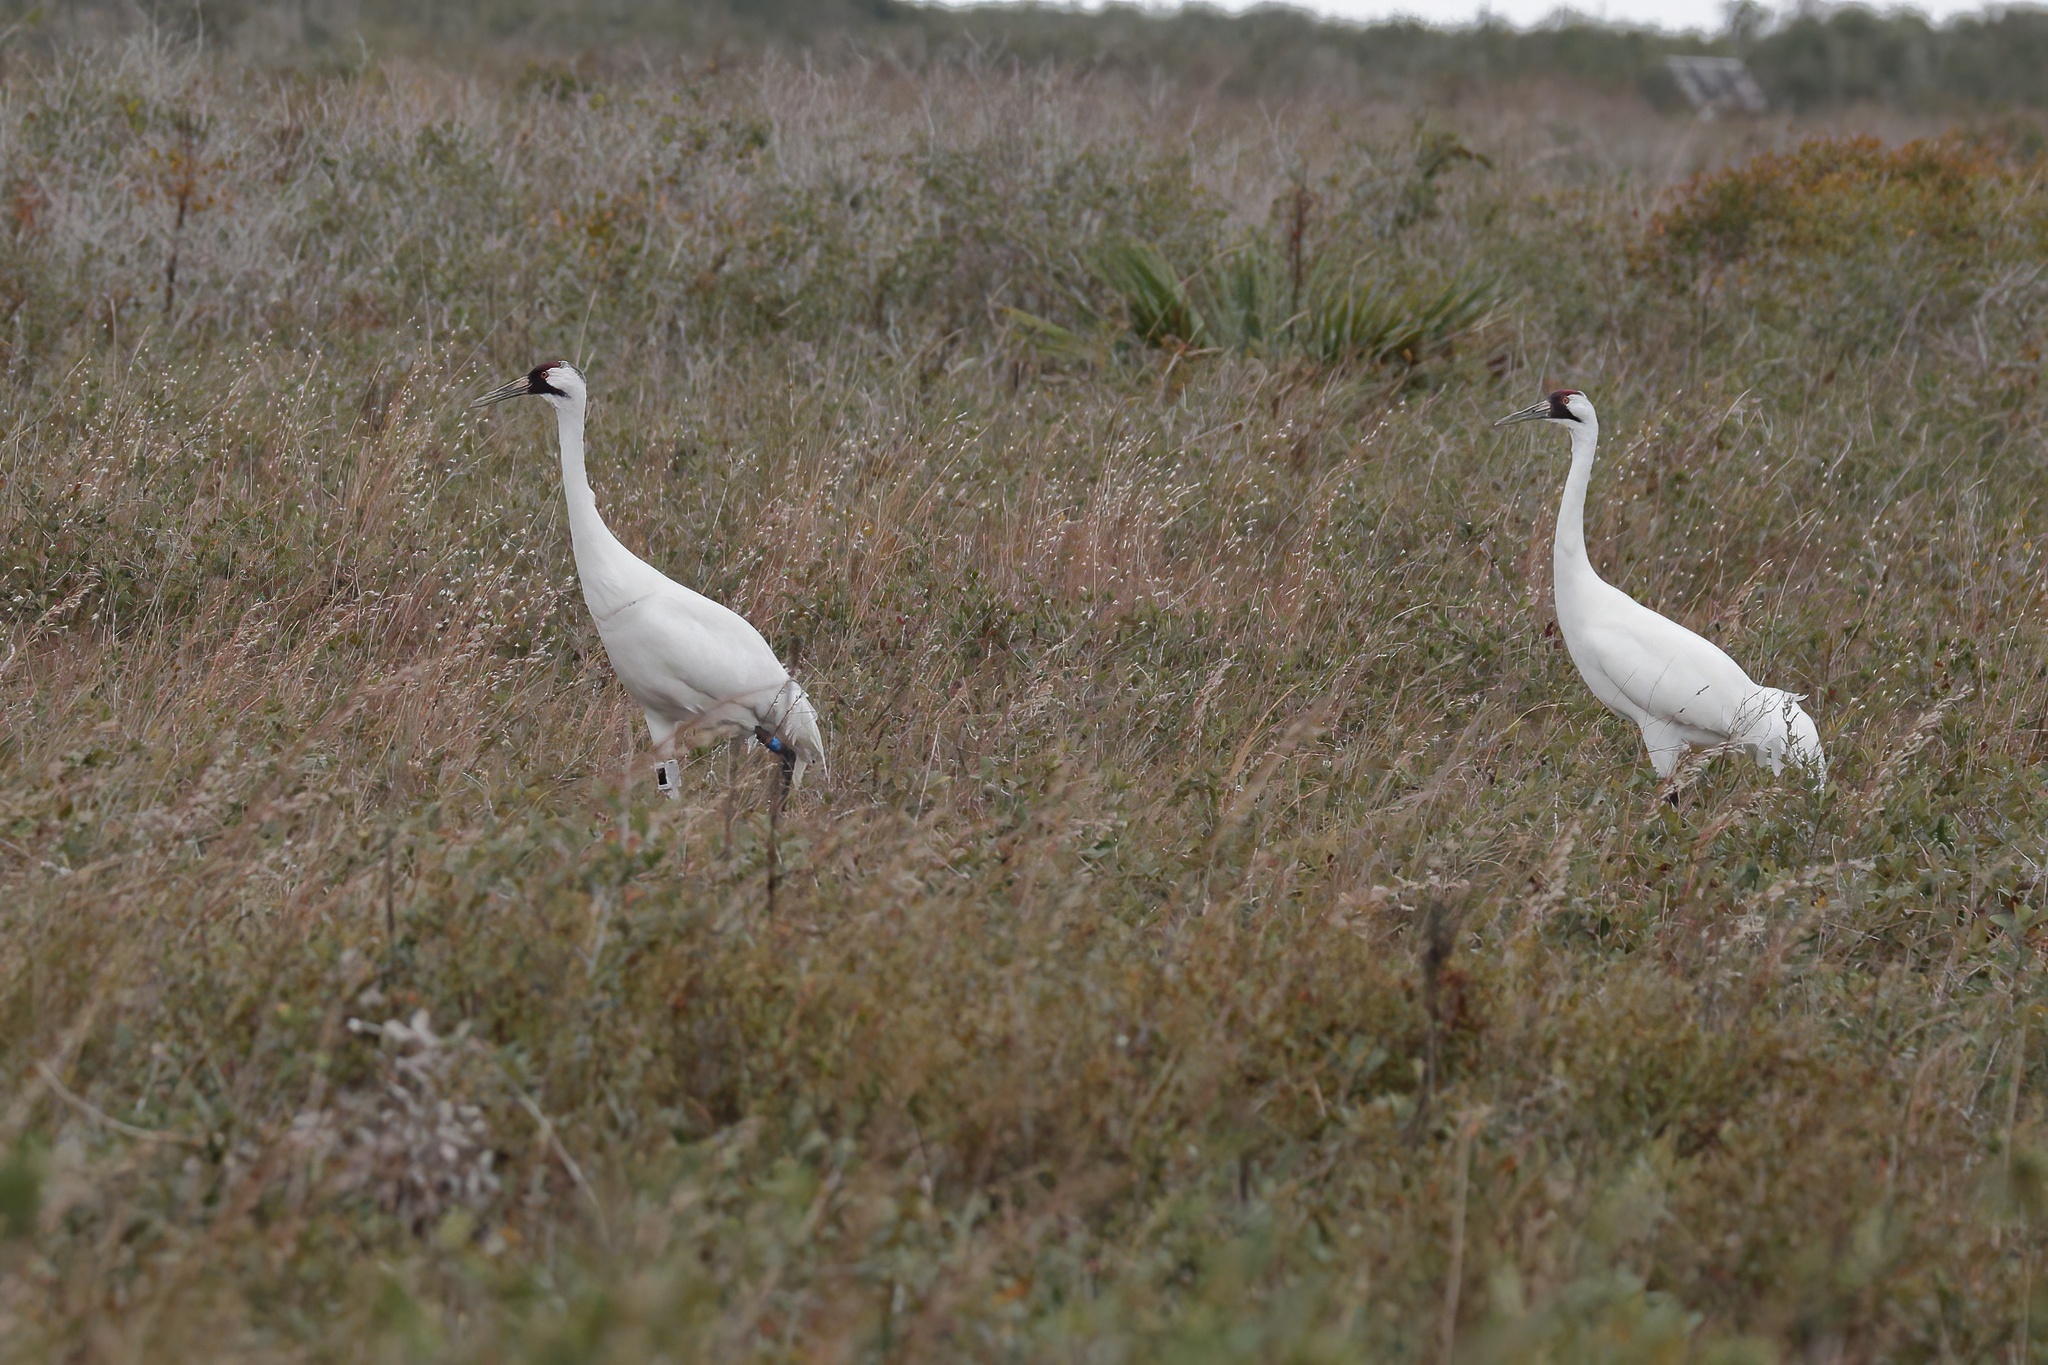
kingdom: Animalia
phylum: Chordata
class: Aves
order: Gruiformes
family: Gruidae
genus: Grus
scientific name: Grus americana
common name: Whooping crane
